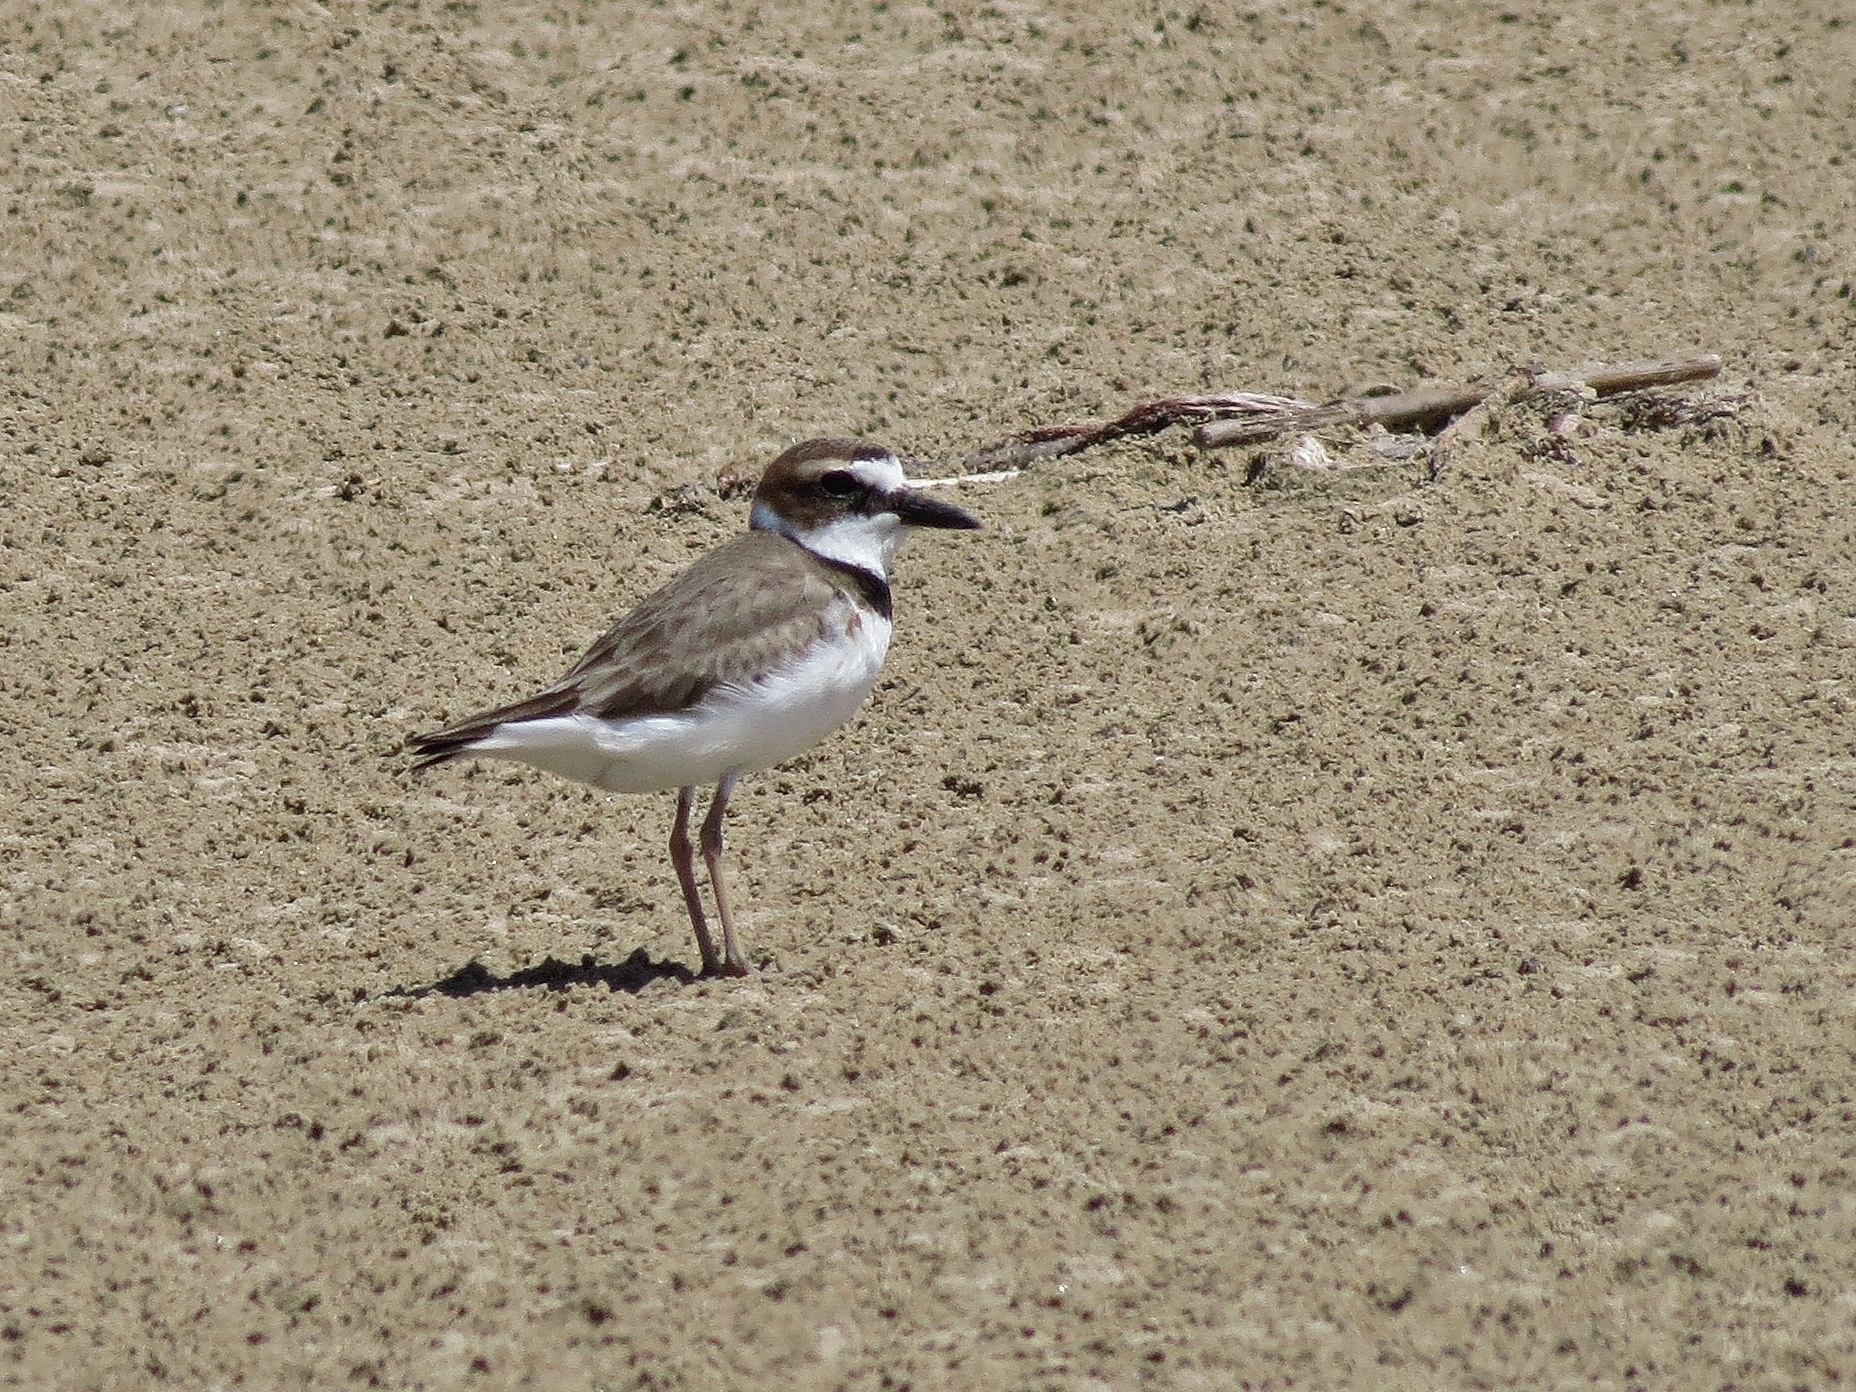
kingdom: Animalia
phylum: Chordata
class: Aves
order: Charadriiformes
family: Charadriidae
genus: Anarhynchus
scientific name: Anarhynchus
